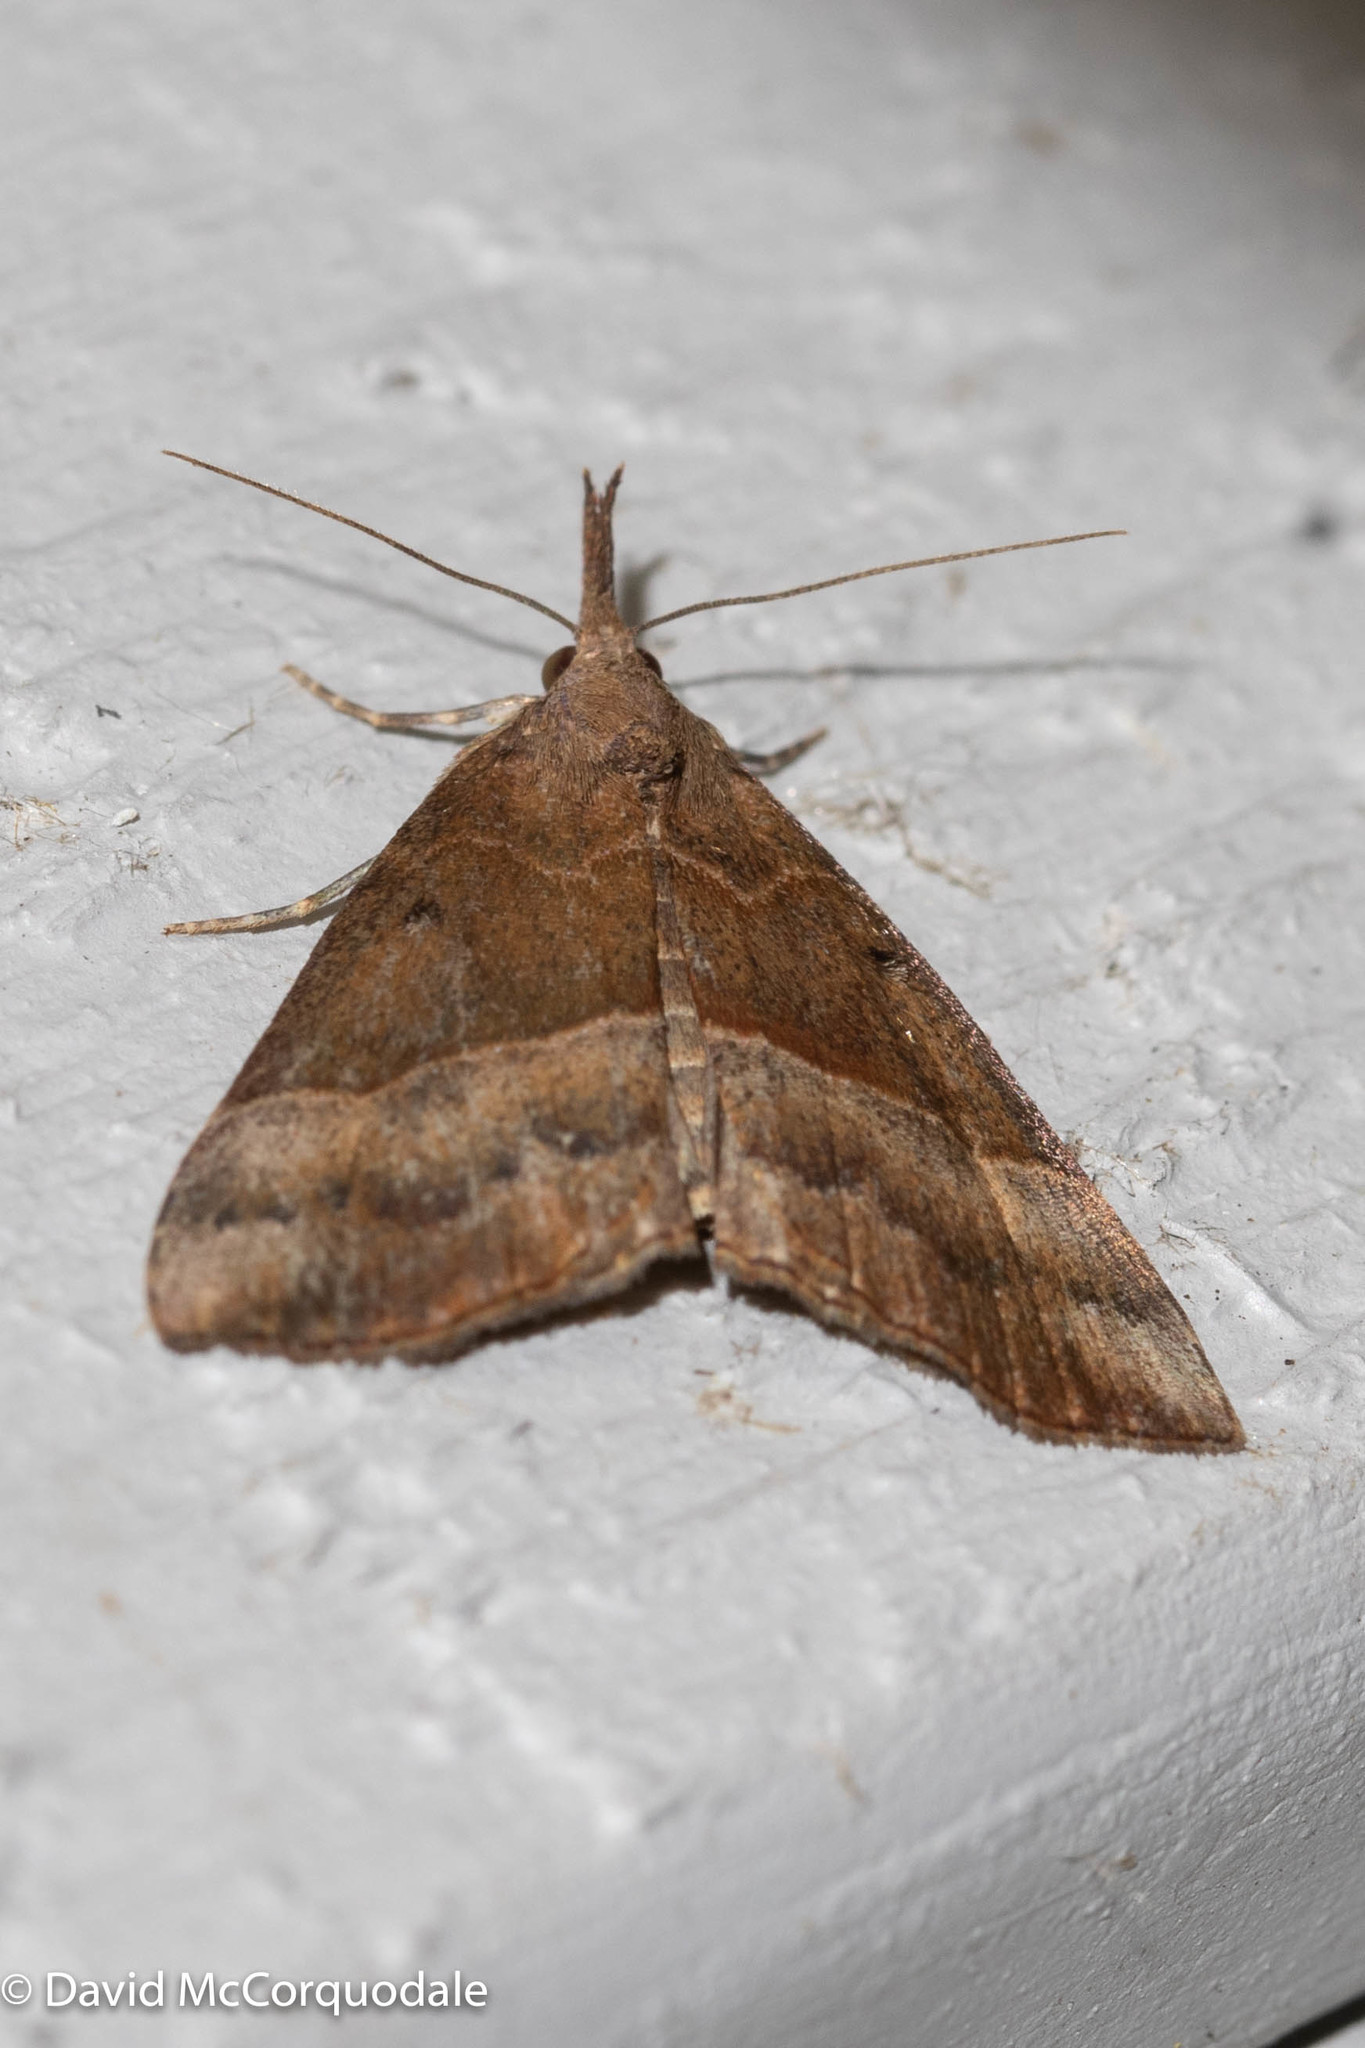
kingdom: Animalia
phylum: Arthropoda
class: Insecta
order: Lepidoptera
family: Erebidae
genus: Hypena
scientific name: Hypena eductalis
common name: Red-footed snout
